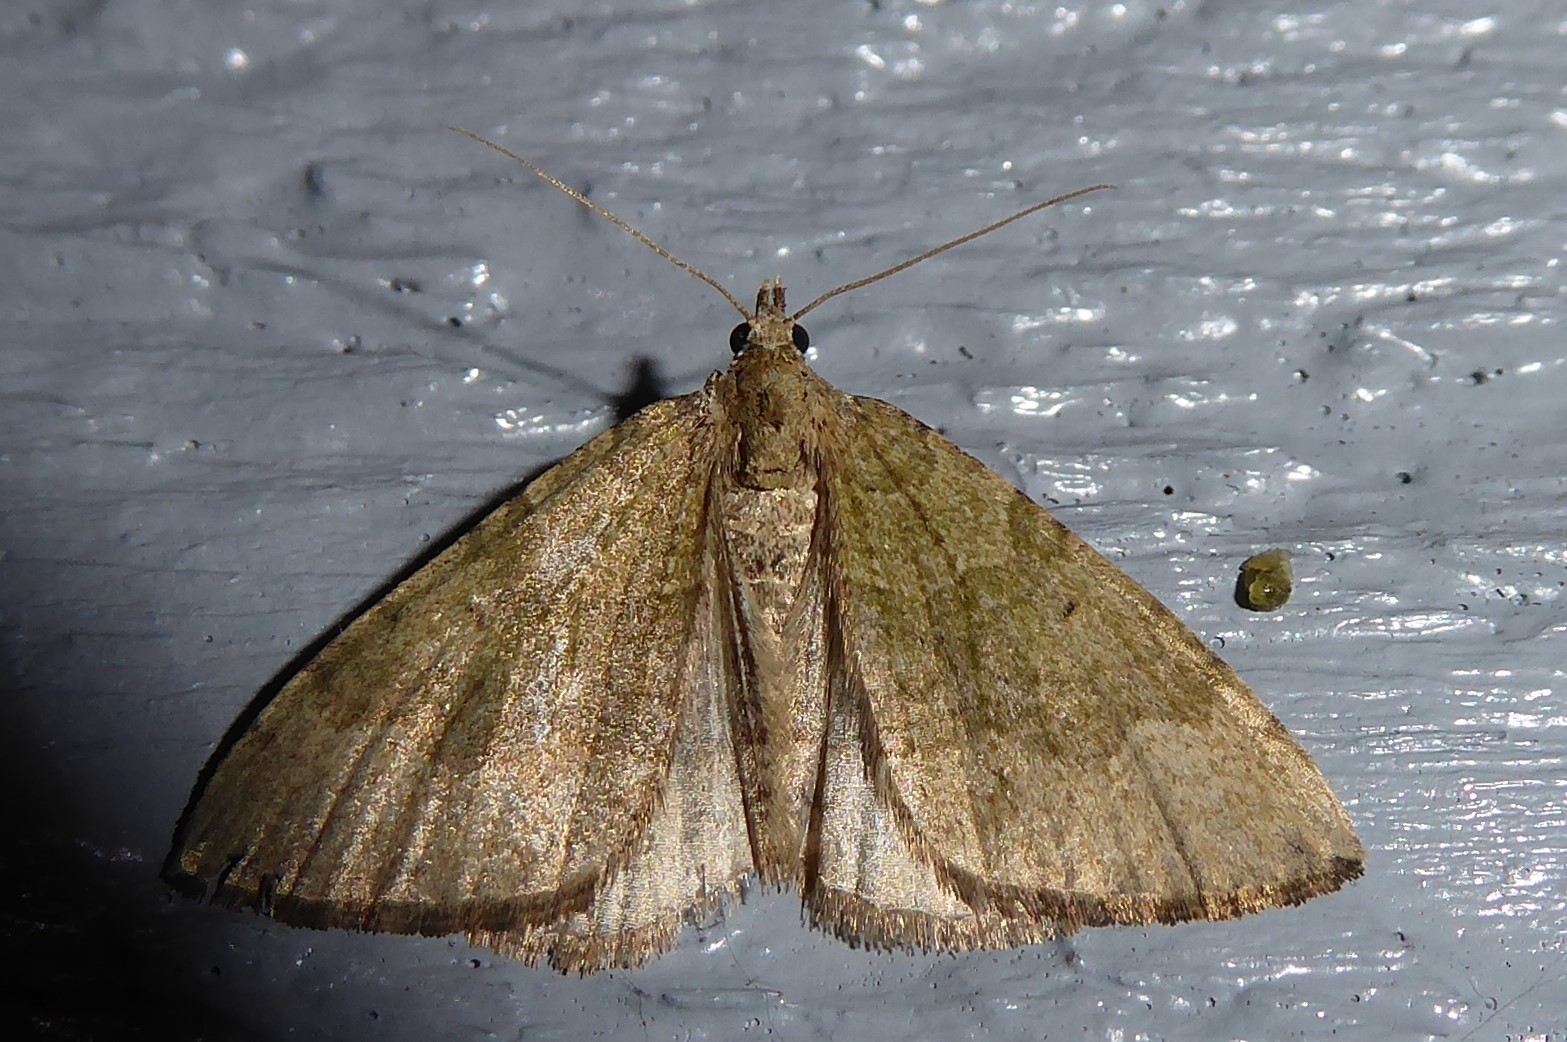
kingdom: Animalia
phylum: Arthropoda
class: Insecta
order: Lepidoptera
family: Geometridae
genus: Epyaxa
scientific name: Epyaxa rosearia
